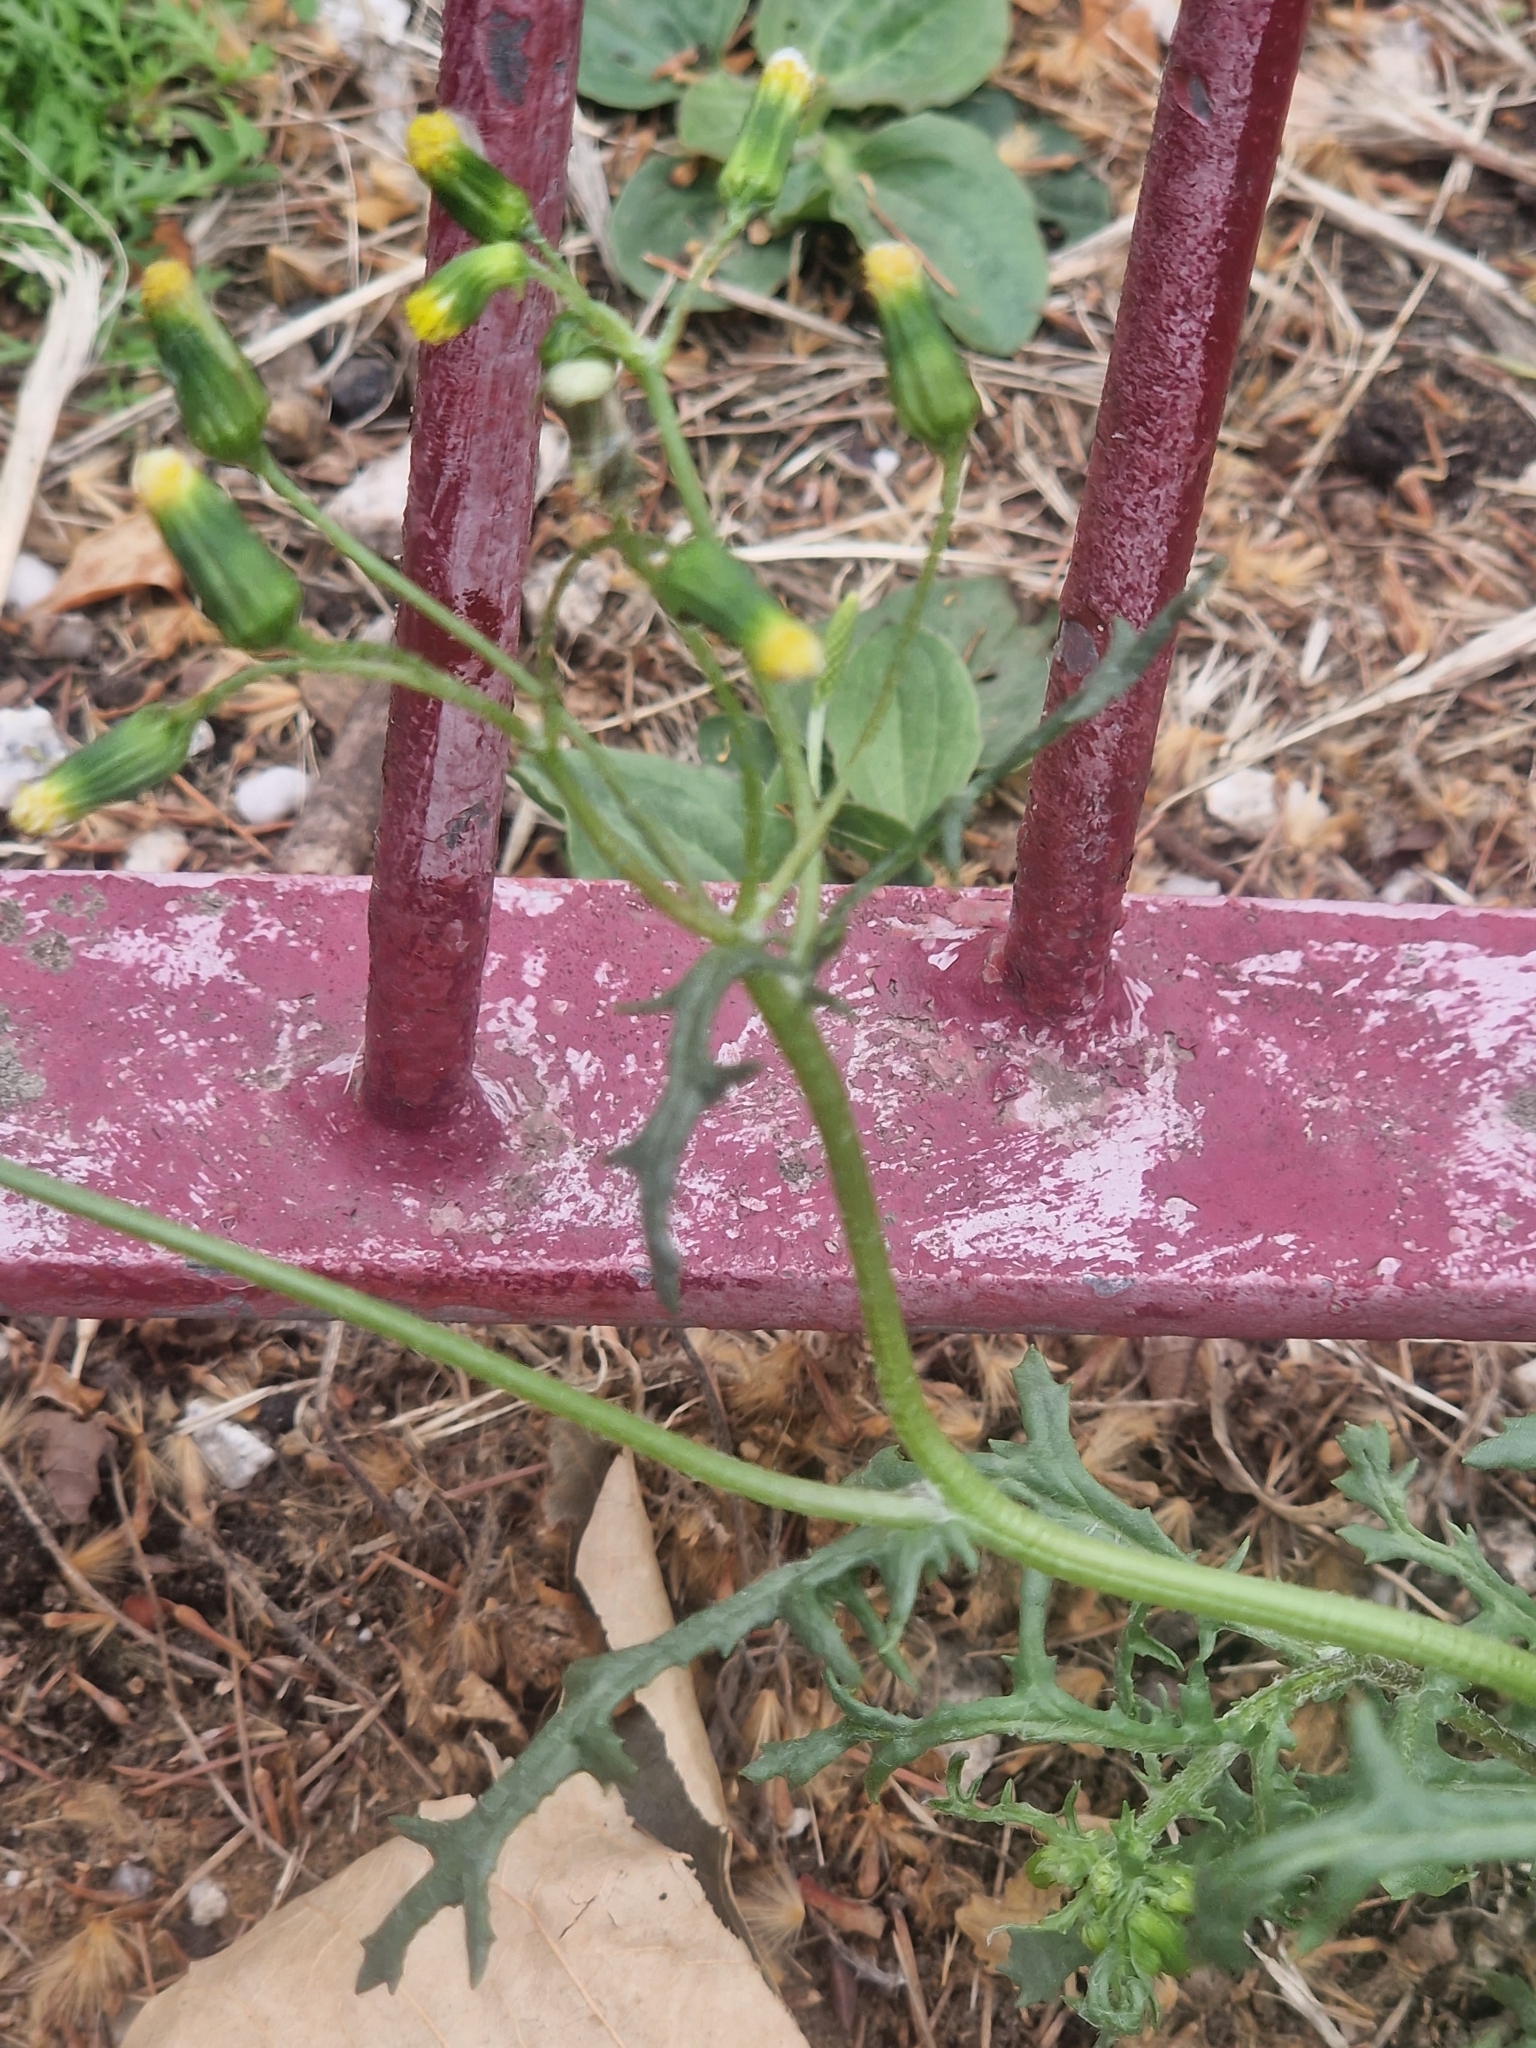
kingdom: Plantae
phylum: Tracheophyta
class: Magnoliopsida
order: Asterales
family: Asteraceae
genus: Senecio
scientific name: Senecio vulgaris
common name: Old-man-in-the-spring
